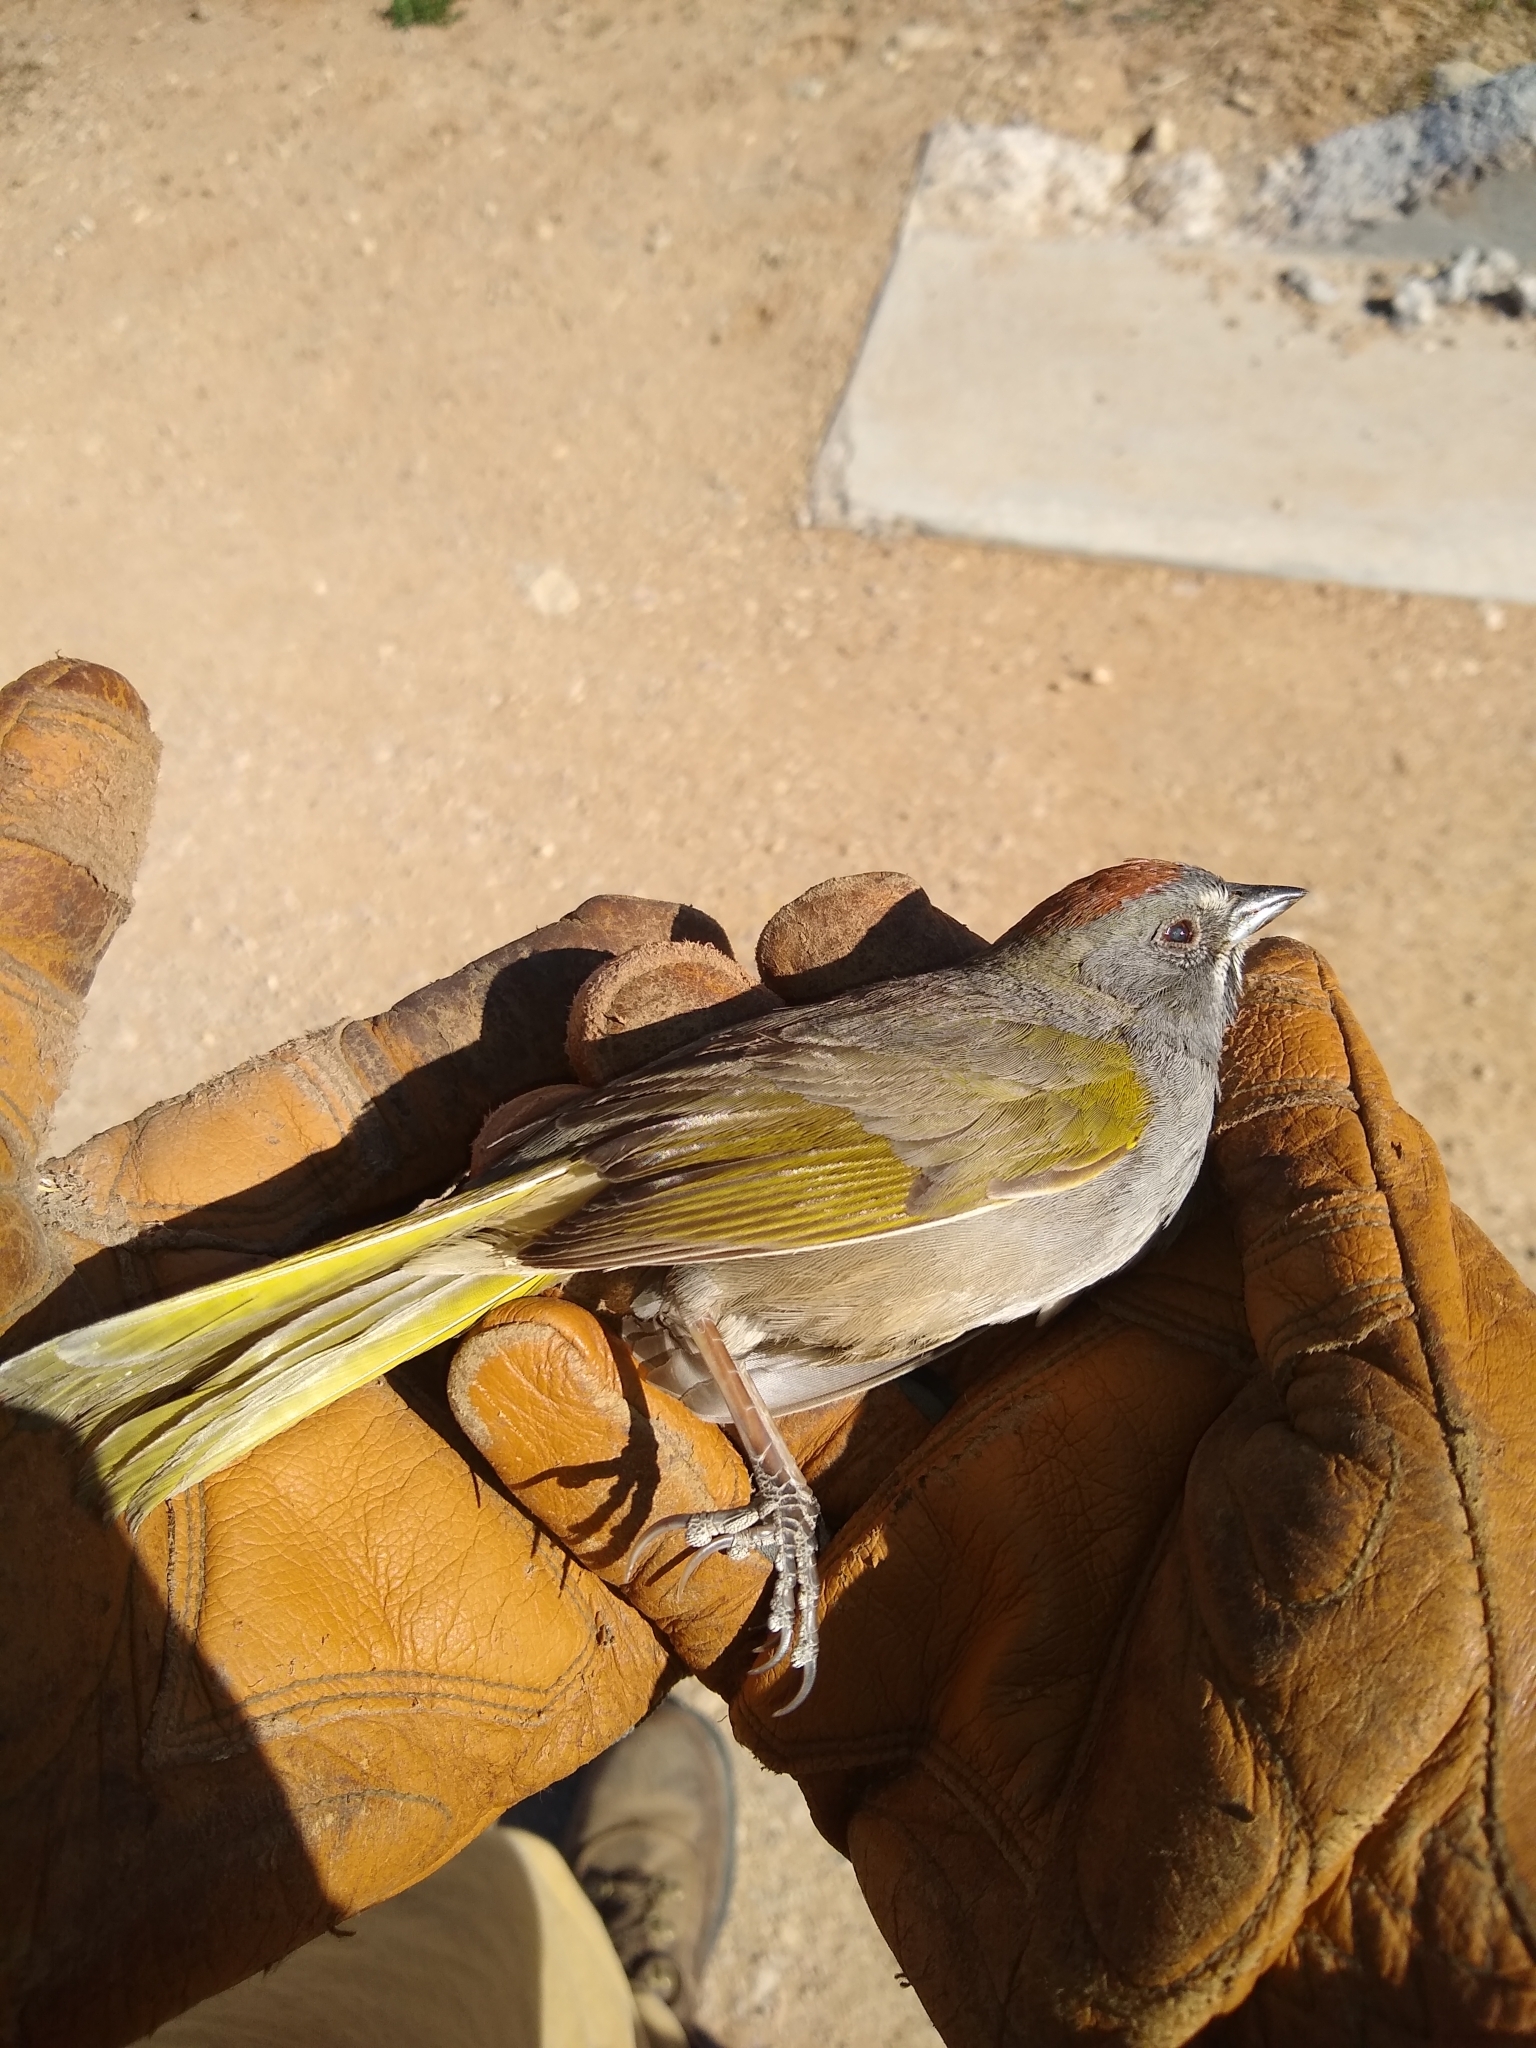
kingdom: Animalia
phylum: Chordata
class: Aves
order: Passeriformes
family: Passerellidae
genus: Pipilo
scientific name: Pipilo chlorurus
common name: Green-tailed towhee
